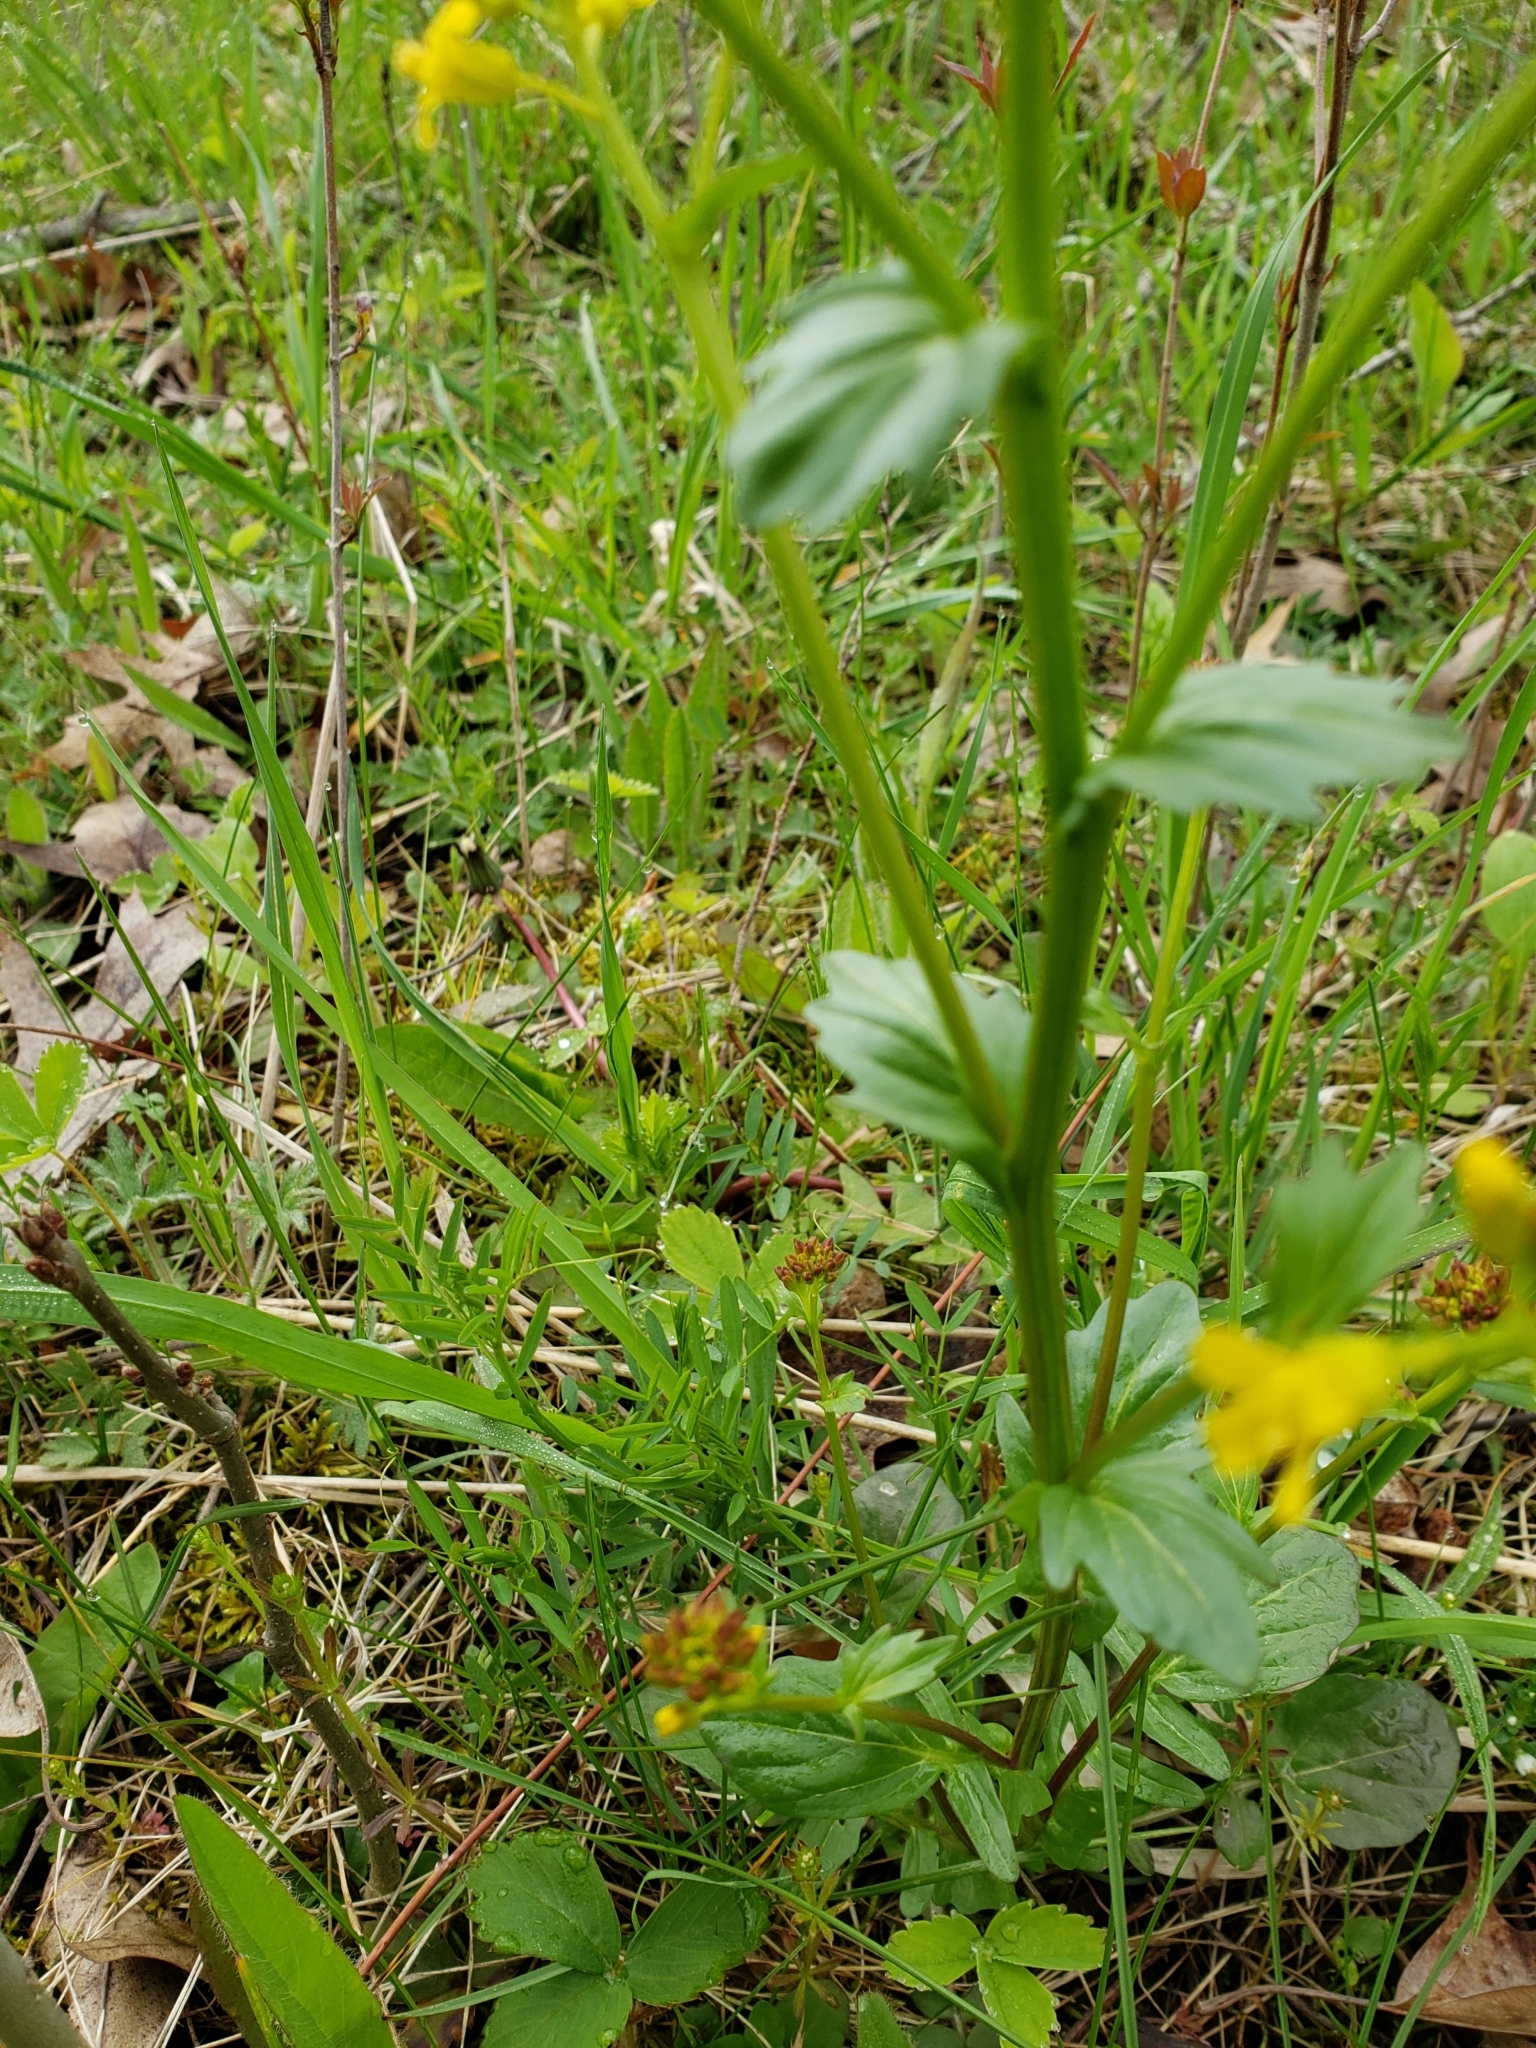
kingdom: Plantae
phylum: Tracheophyta
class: Magnoliopsida
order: Brassicales
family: Brassicaceae
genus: Barbarea
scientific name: Barbarea vulgaris
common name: Cressy-greens
